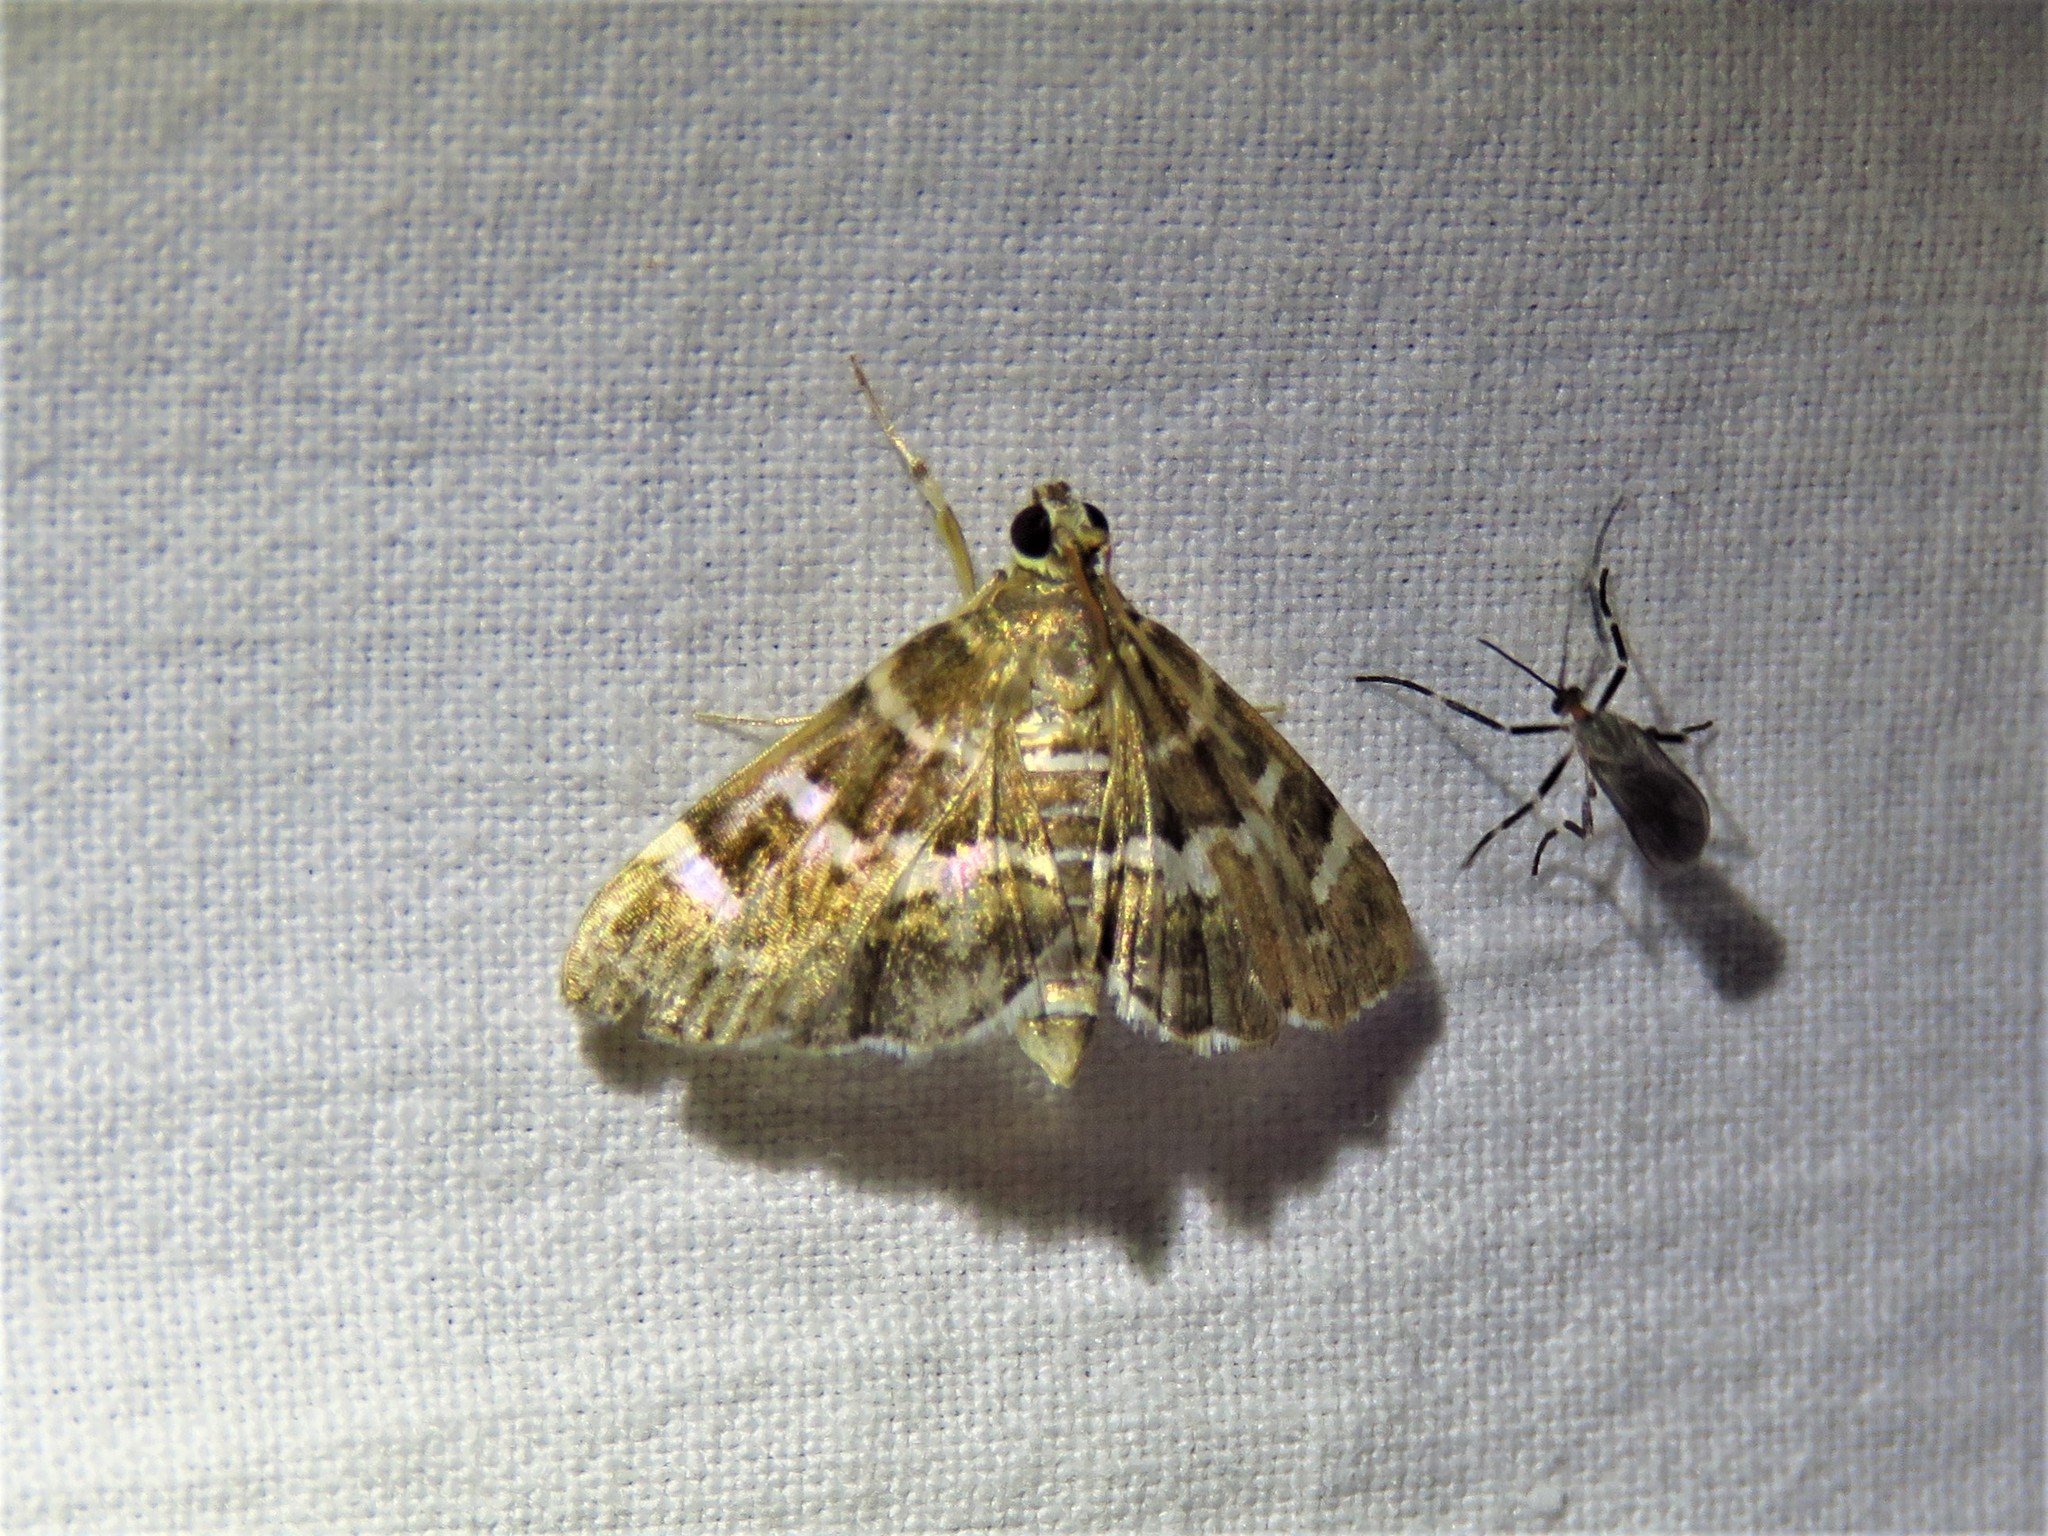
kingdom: Animalia
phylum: Arthropoda
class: Insecta
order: Lepidoptera
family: Crambidae
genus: Hymenia
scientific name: Hymenia perspectalis
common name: Spotted beet webworm
